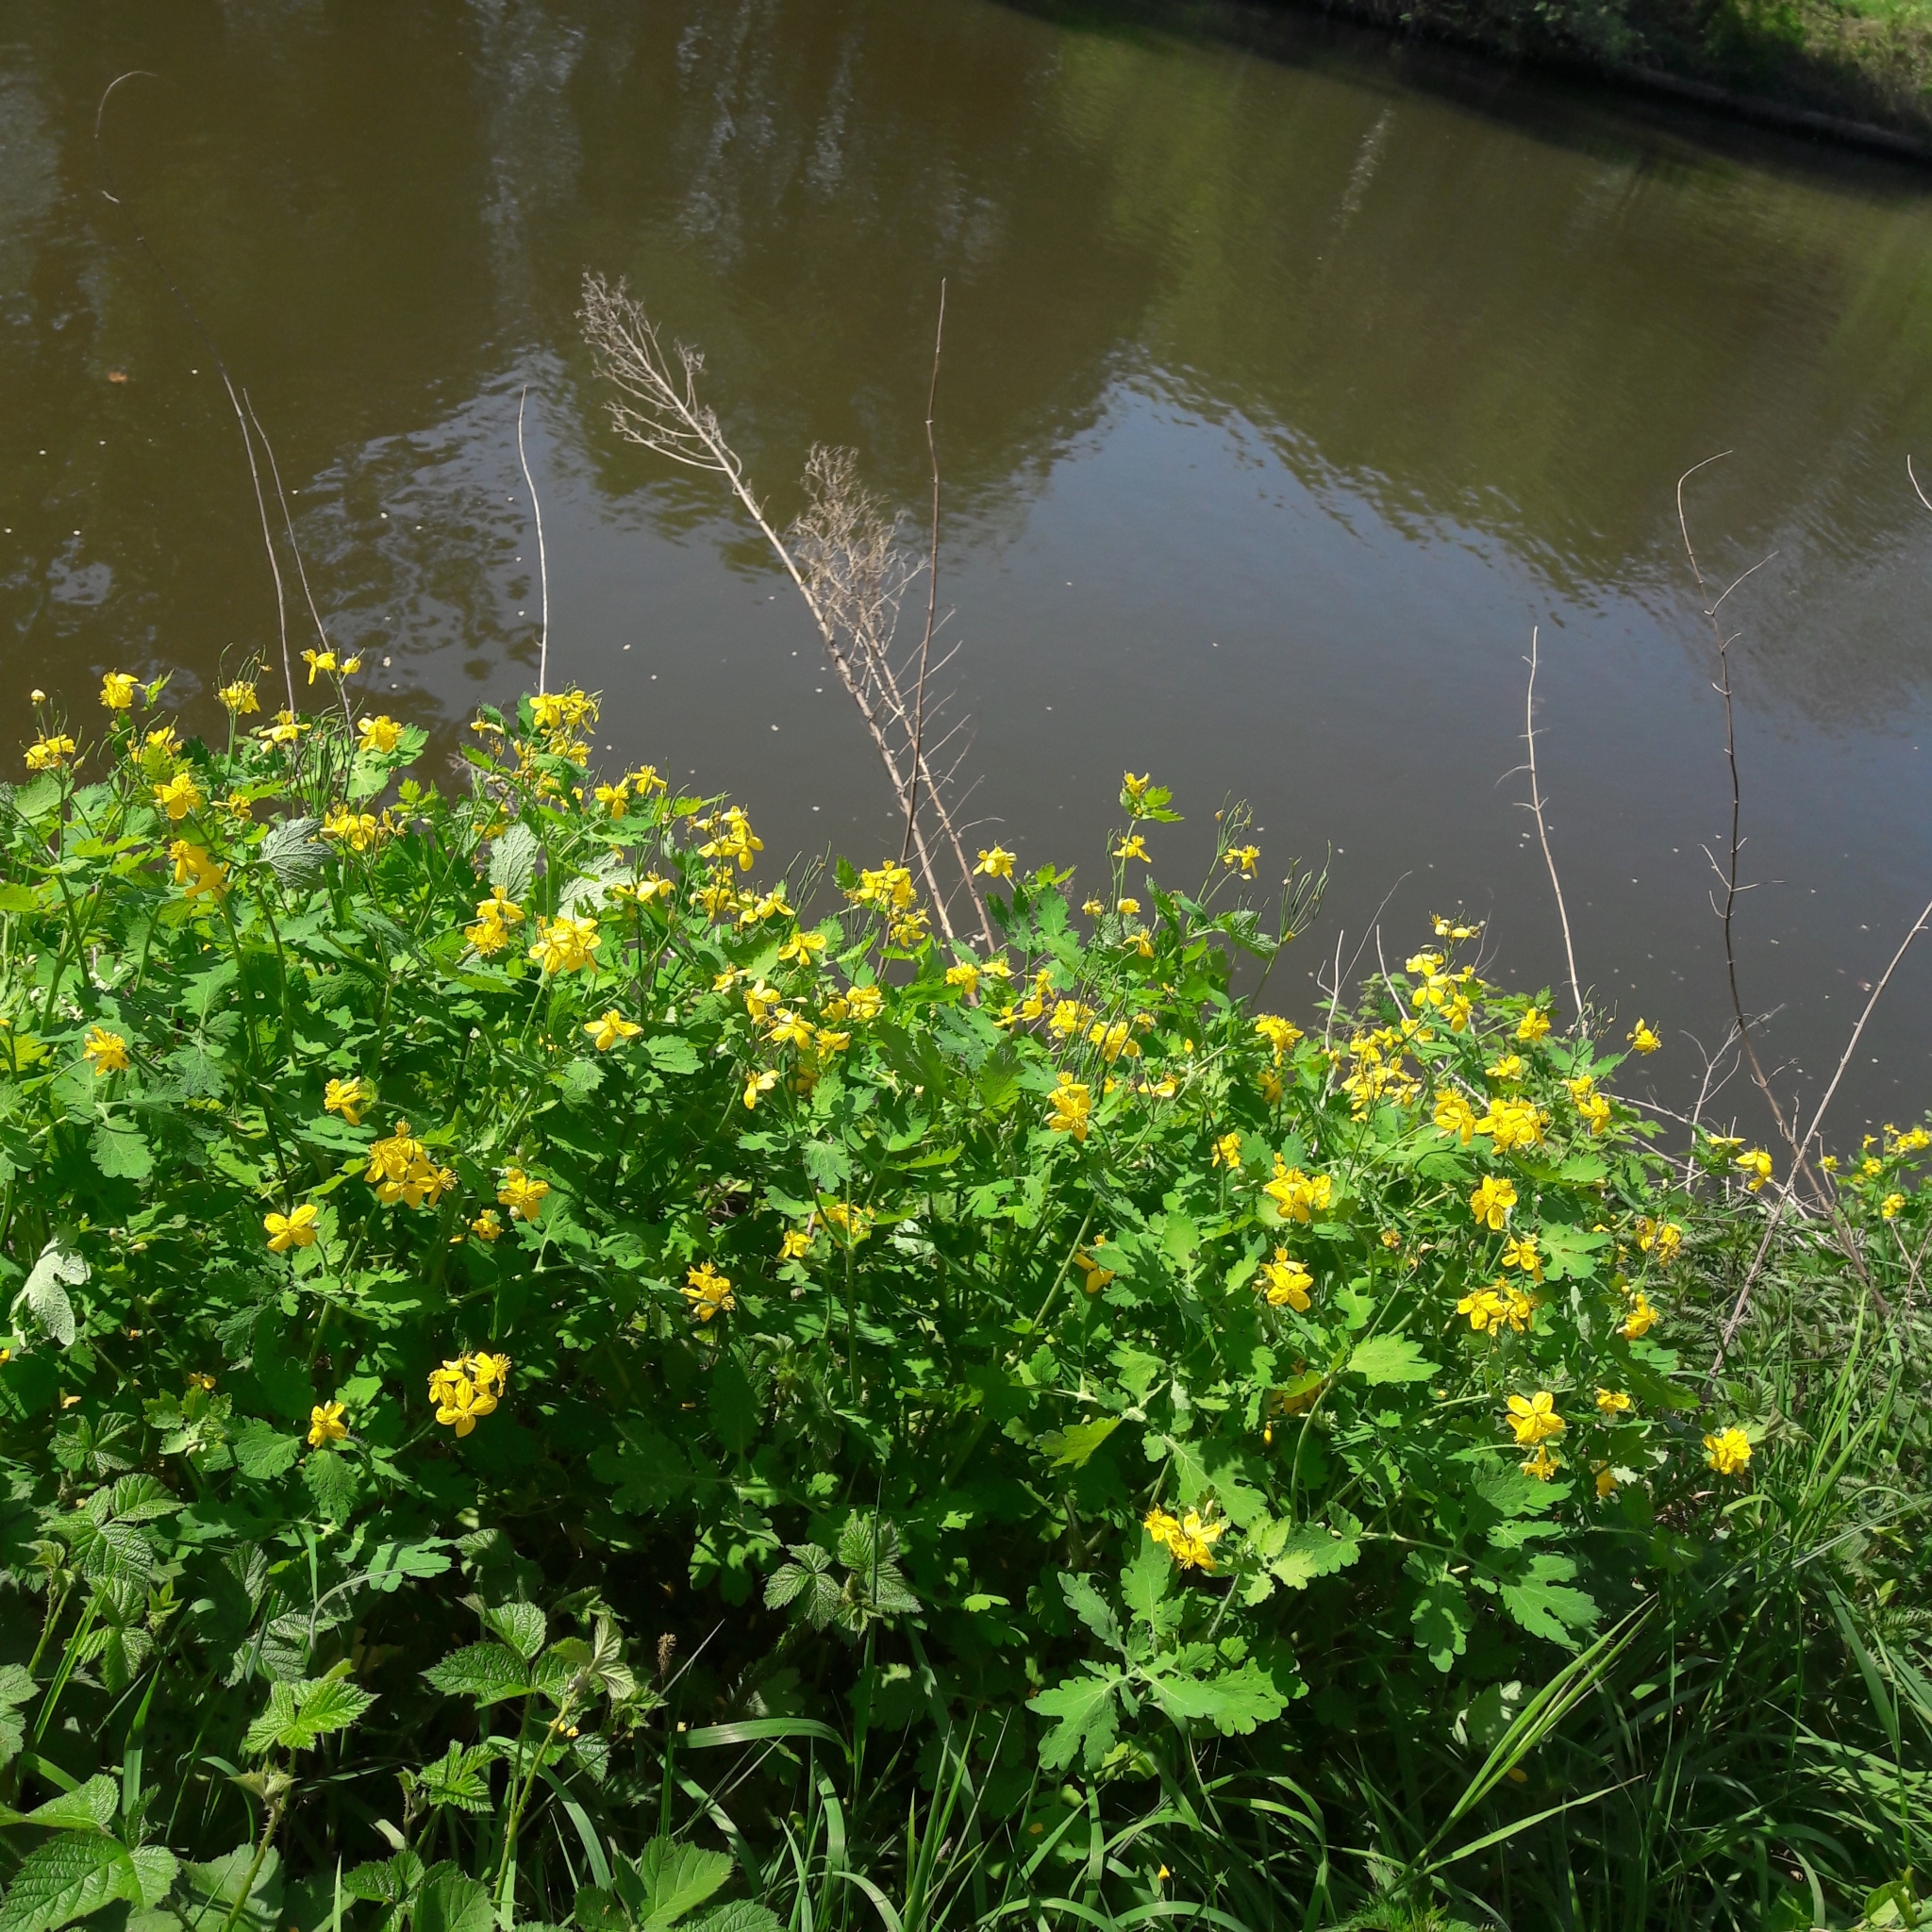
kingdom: Plantae
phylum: Tracheophyta
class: Magnoliopsida
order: Ranunculales
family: Papaveraceae
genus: Chelidonium
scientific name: Chelidonium majus
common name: Greater celandine
